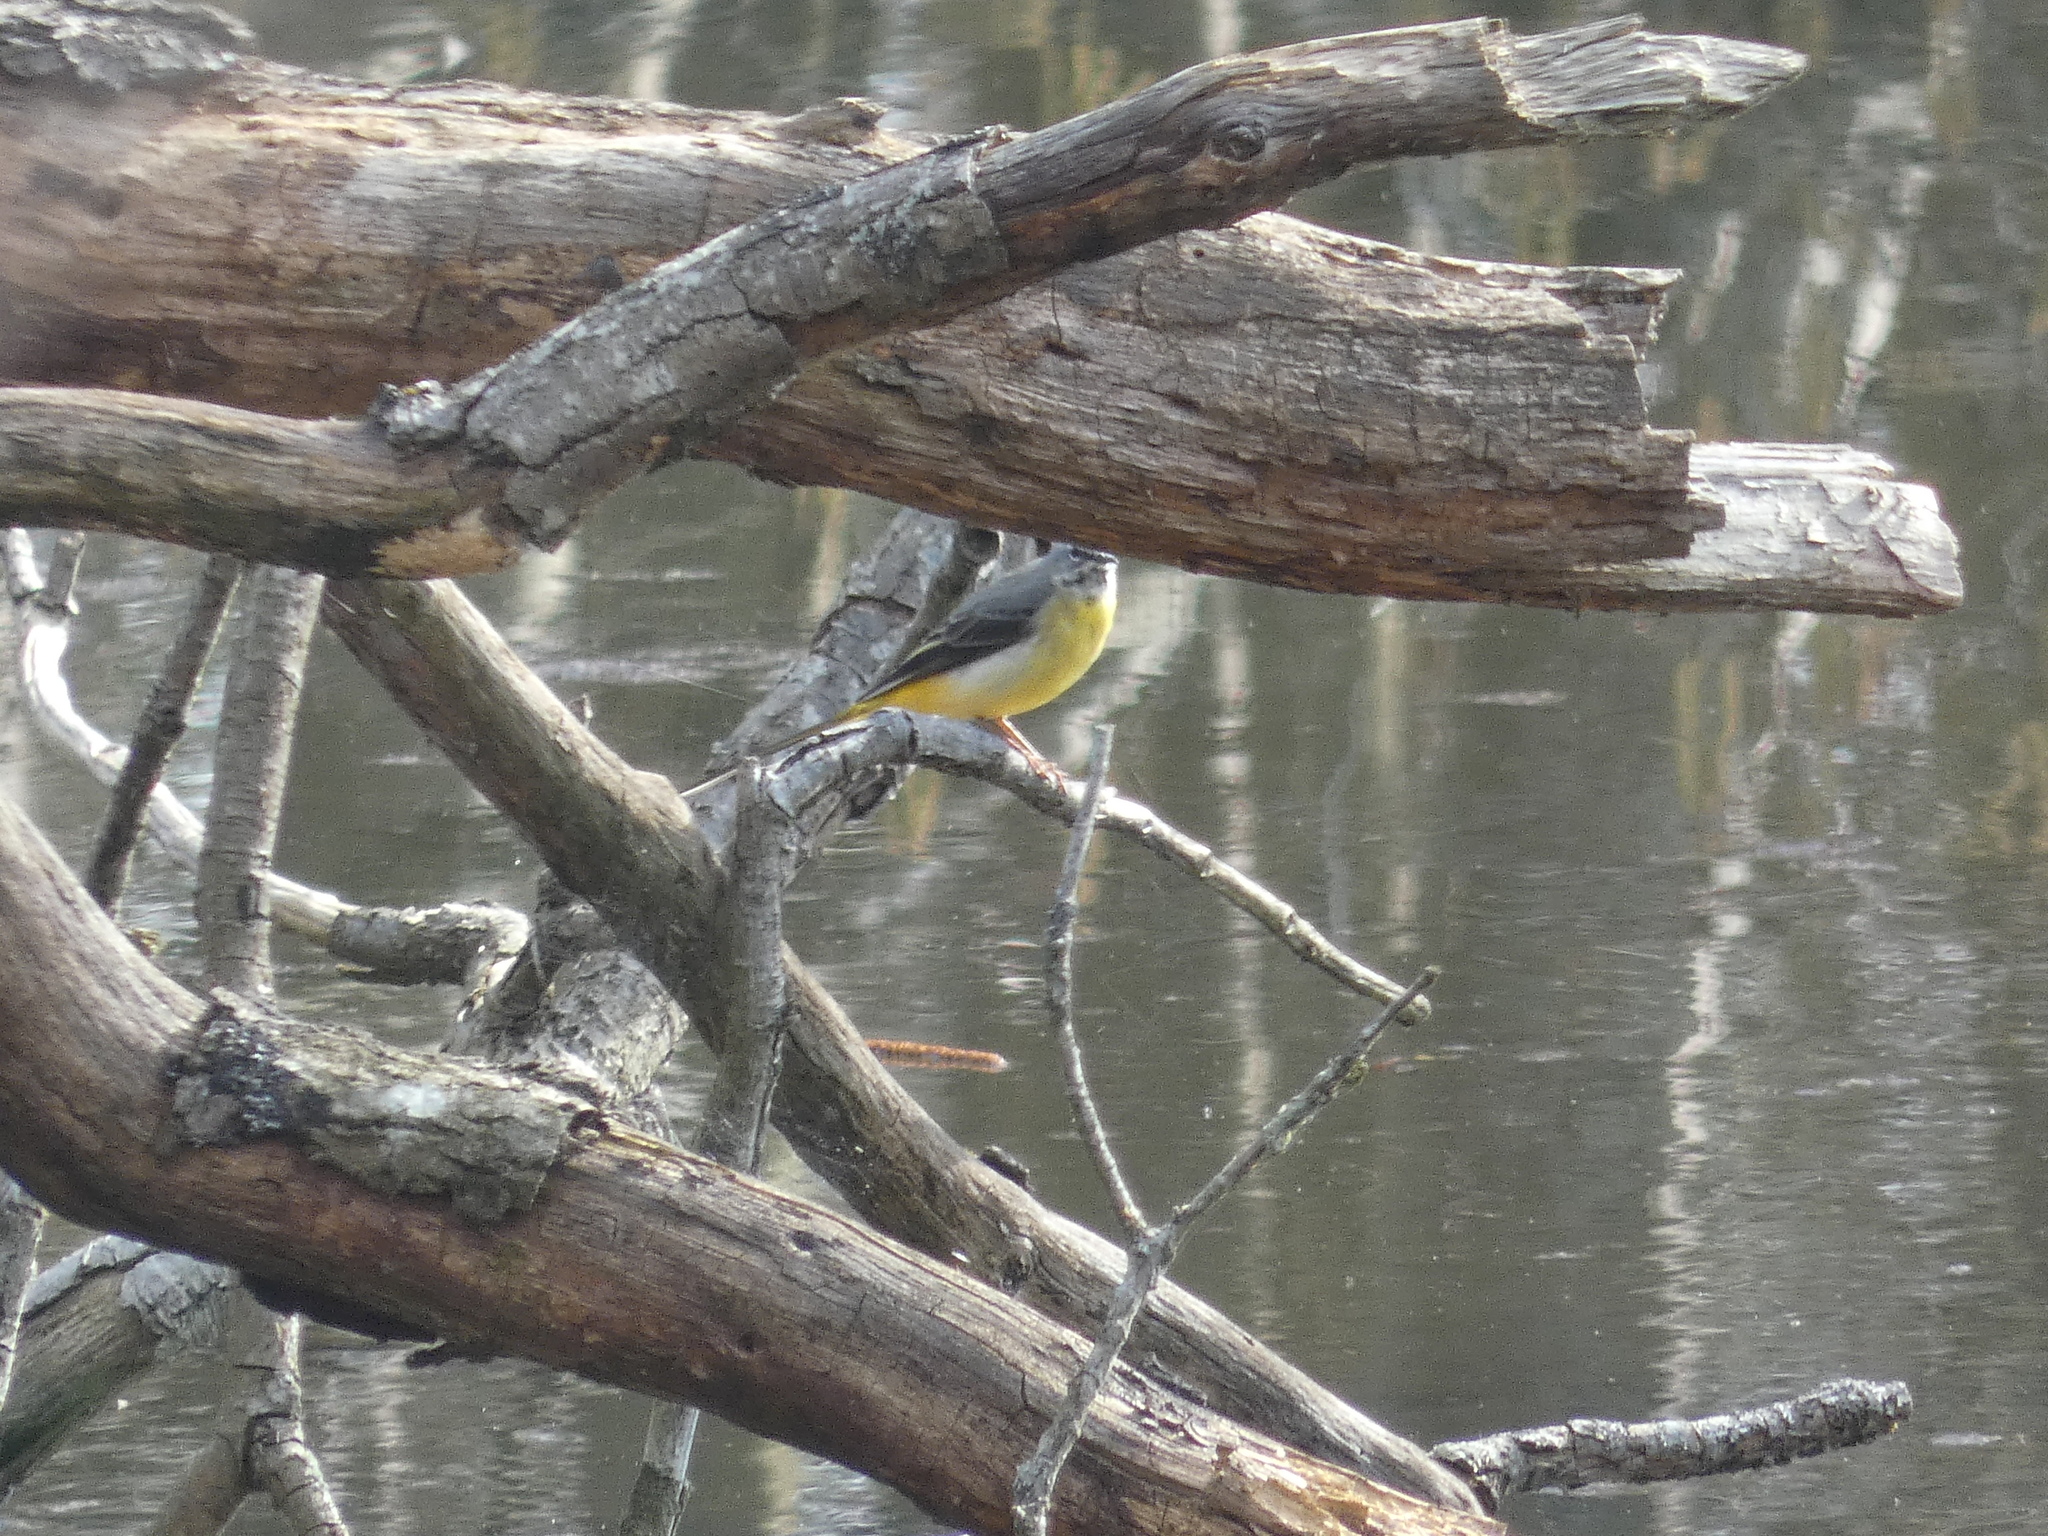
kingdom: Animalia
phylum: Chordata
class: Aves
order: Passeriformes
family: Motacillidae
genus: Motacilla
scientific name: Motacilla cinerea
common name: Grey wagtail
